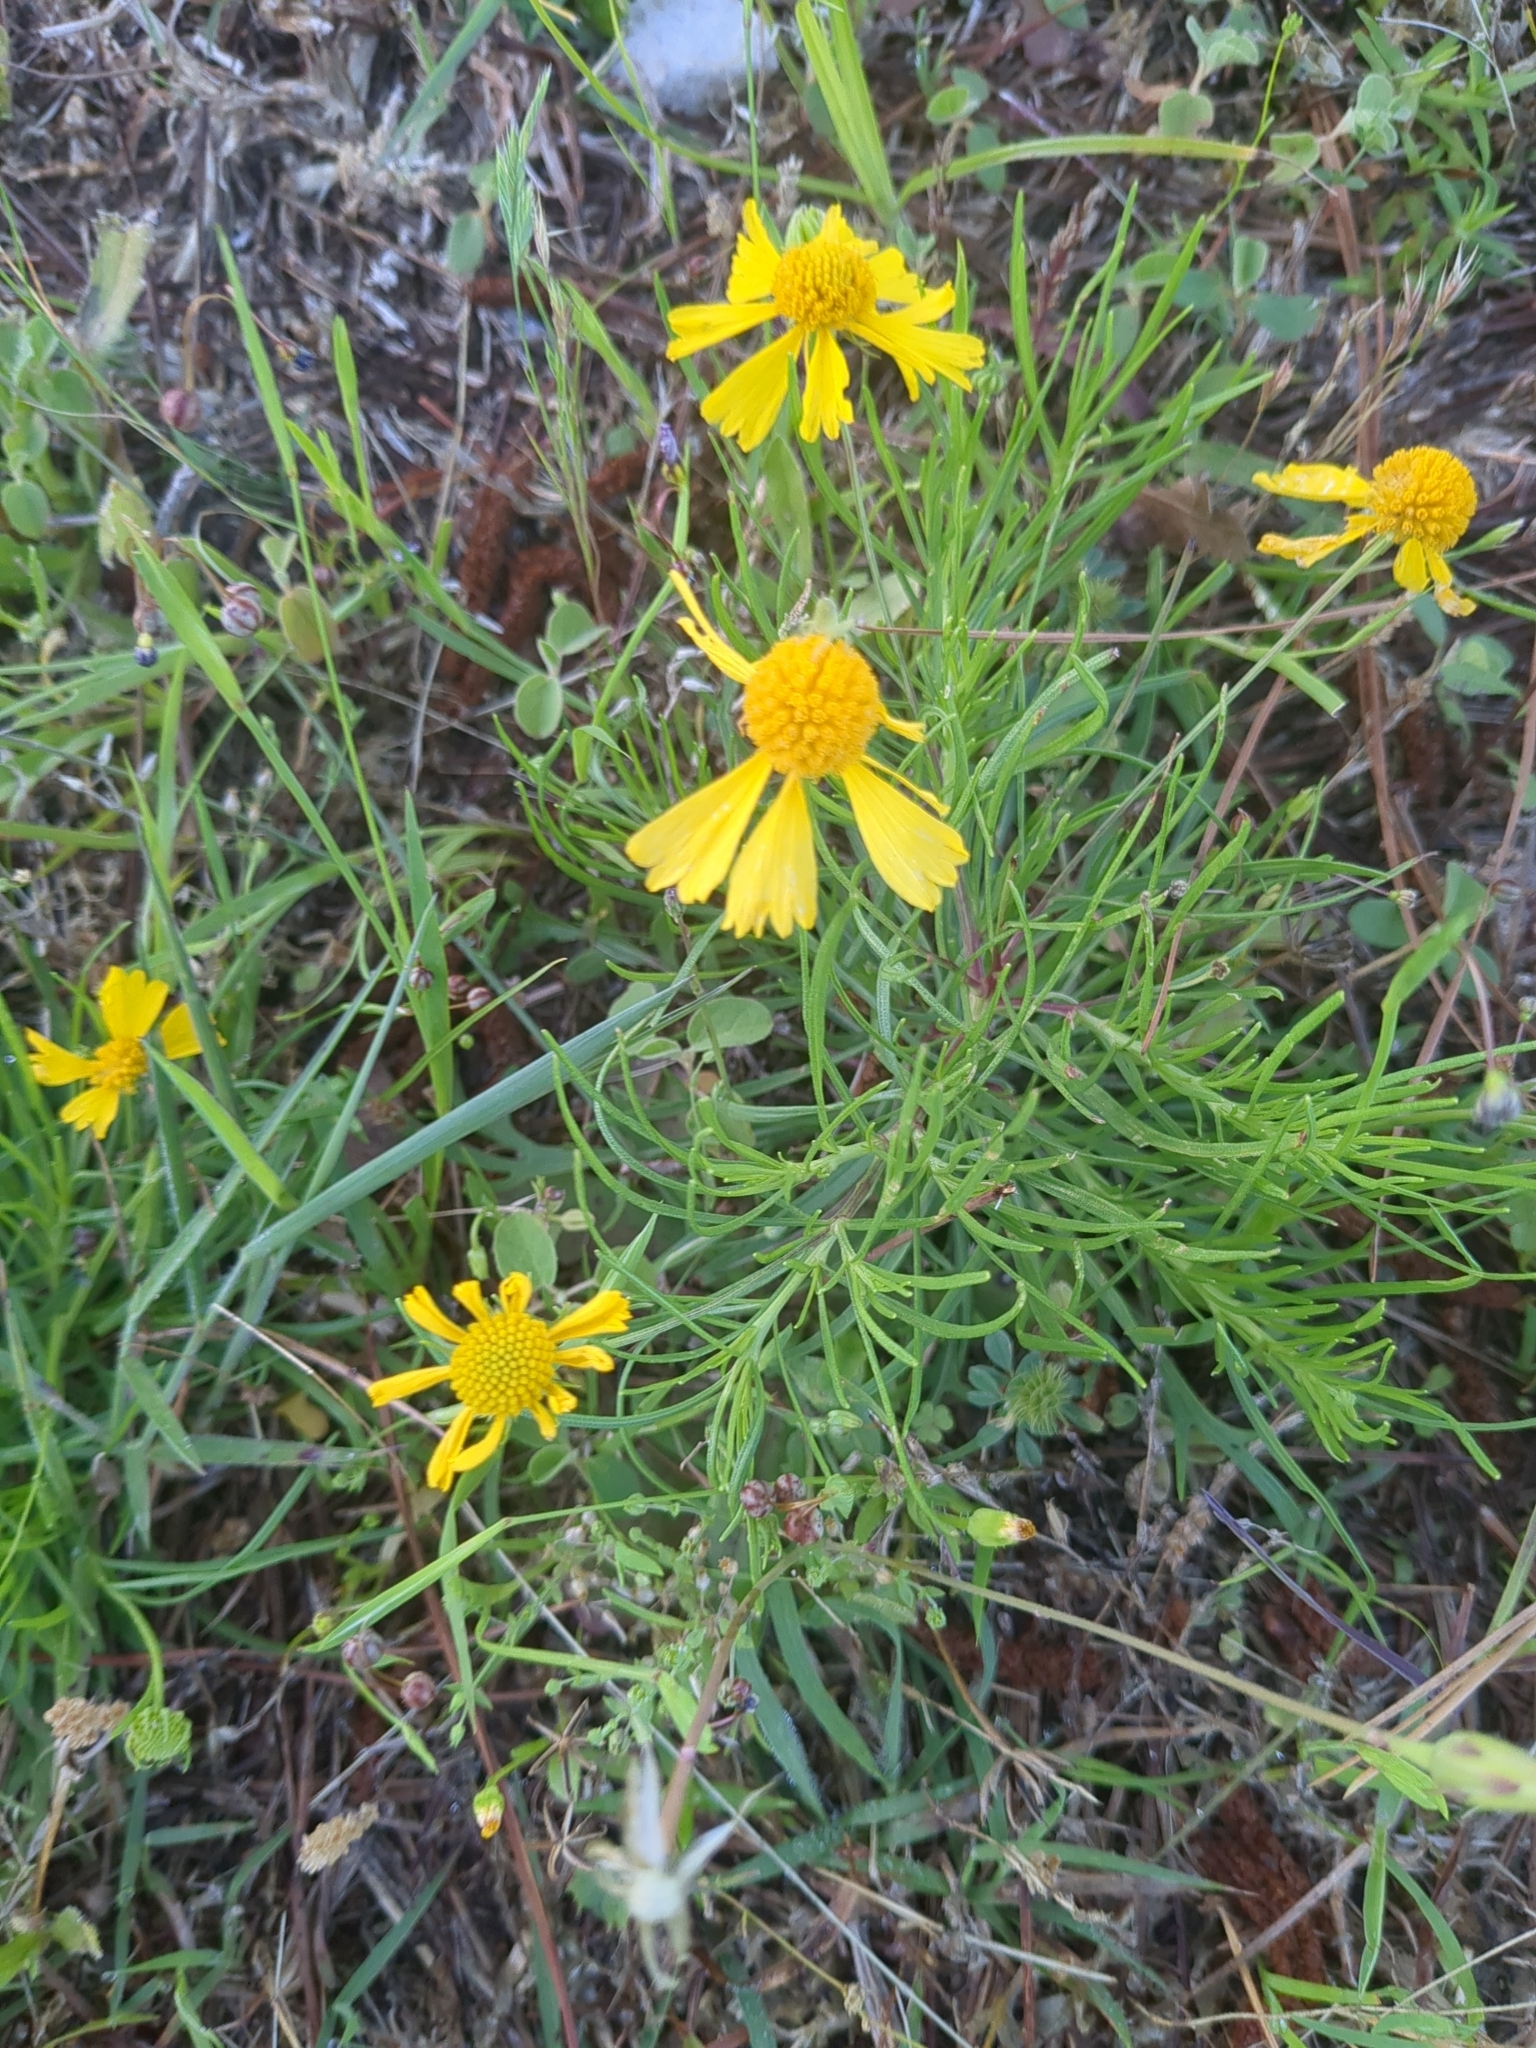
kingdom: Plantae
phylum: Tracheophyta
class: Magnoliopsida
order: Asterales
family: Asteraceae
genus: Helenium
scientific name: Helenium amarum
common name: Bitter sneezeweed
